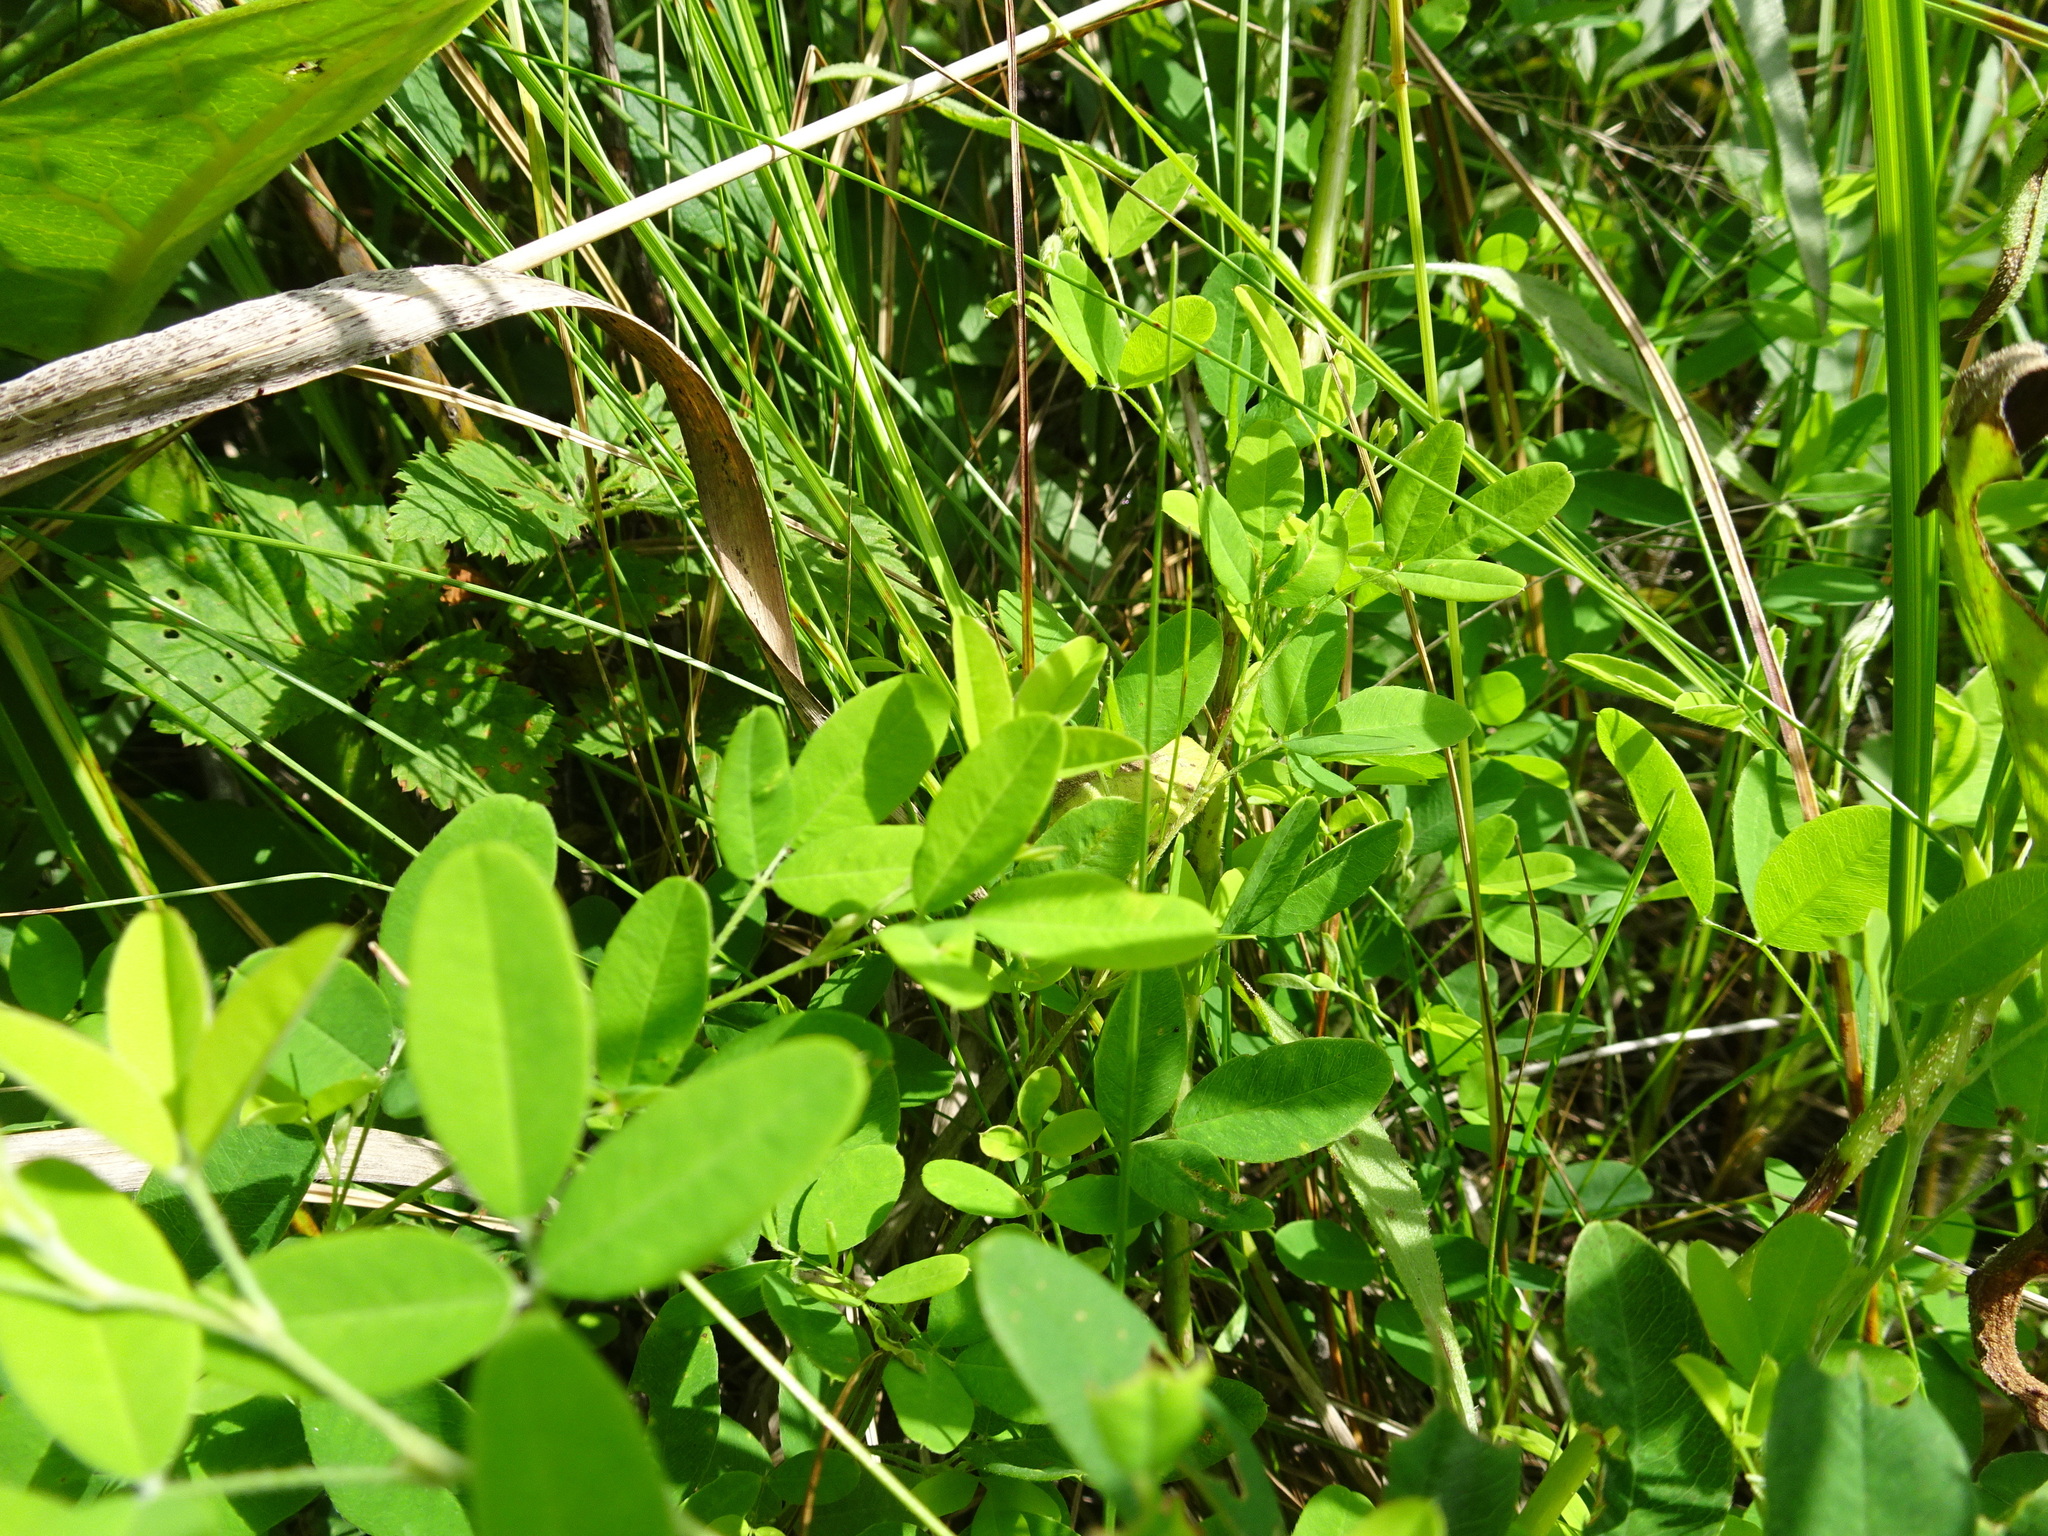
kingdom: Plantae
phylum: Tracheophyta
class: Magnoliopsida
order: Fabales
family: Fabaceae
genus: Lespedeza
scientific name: Lespedeza
